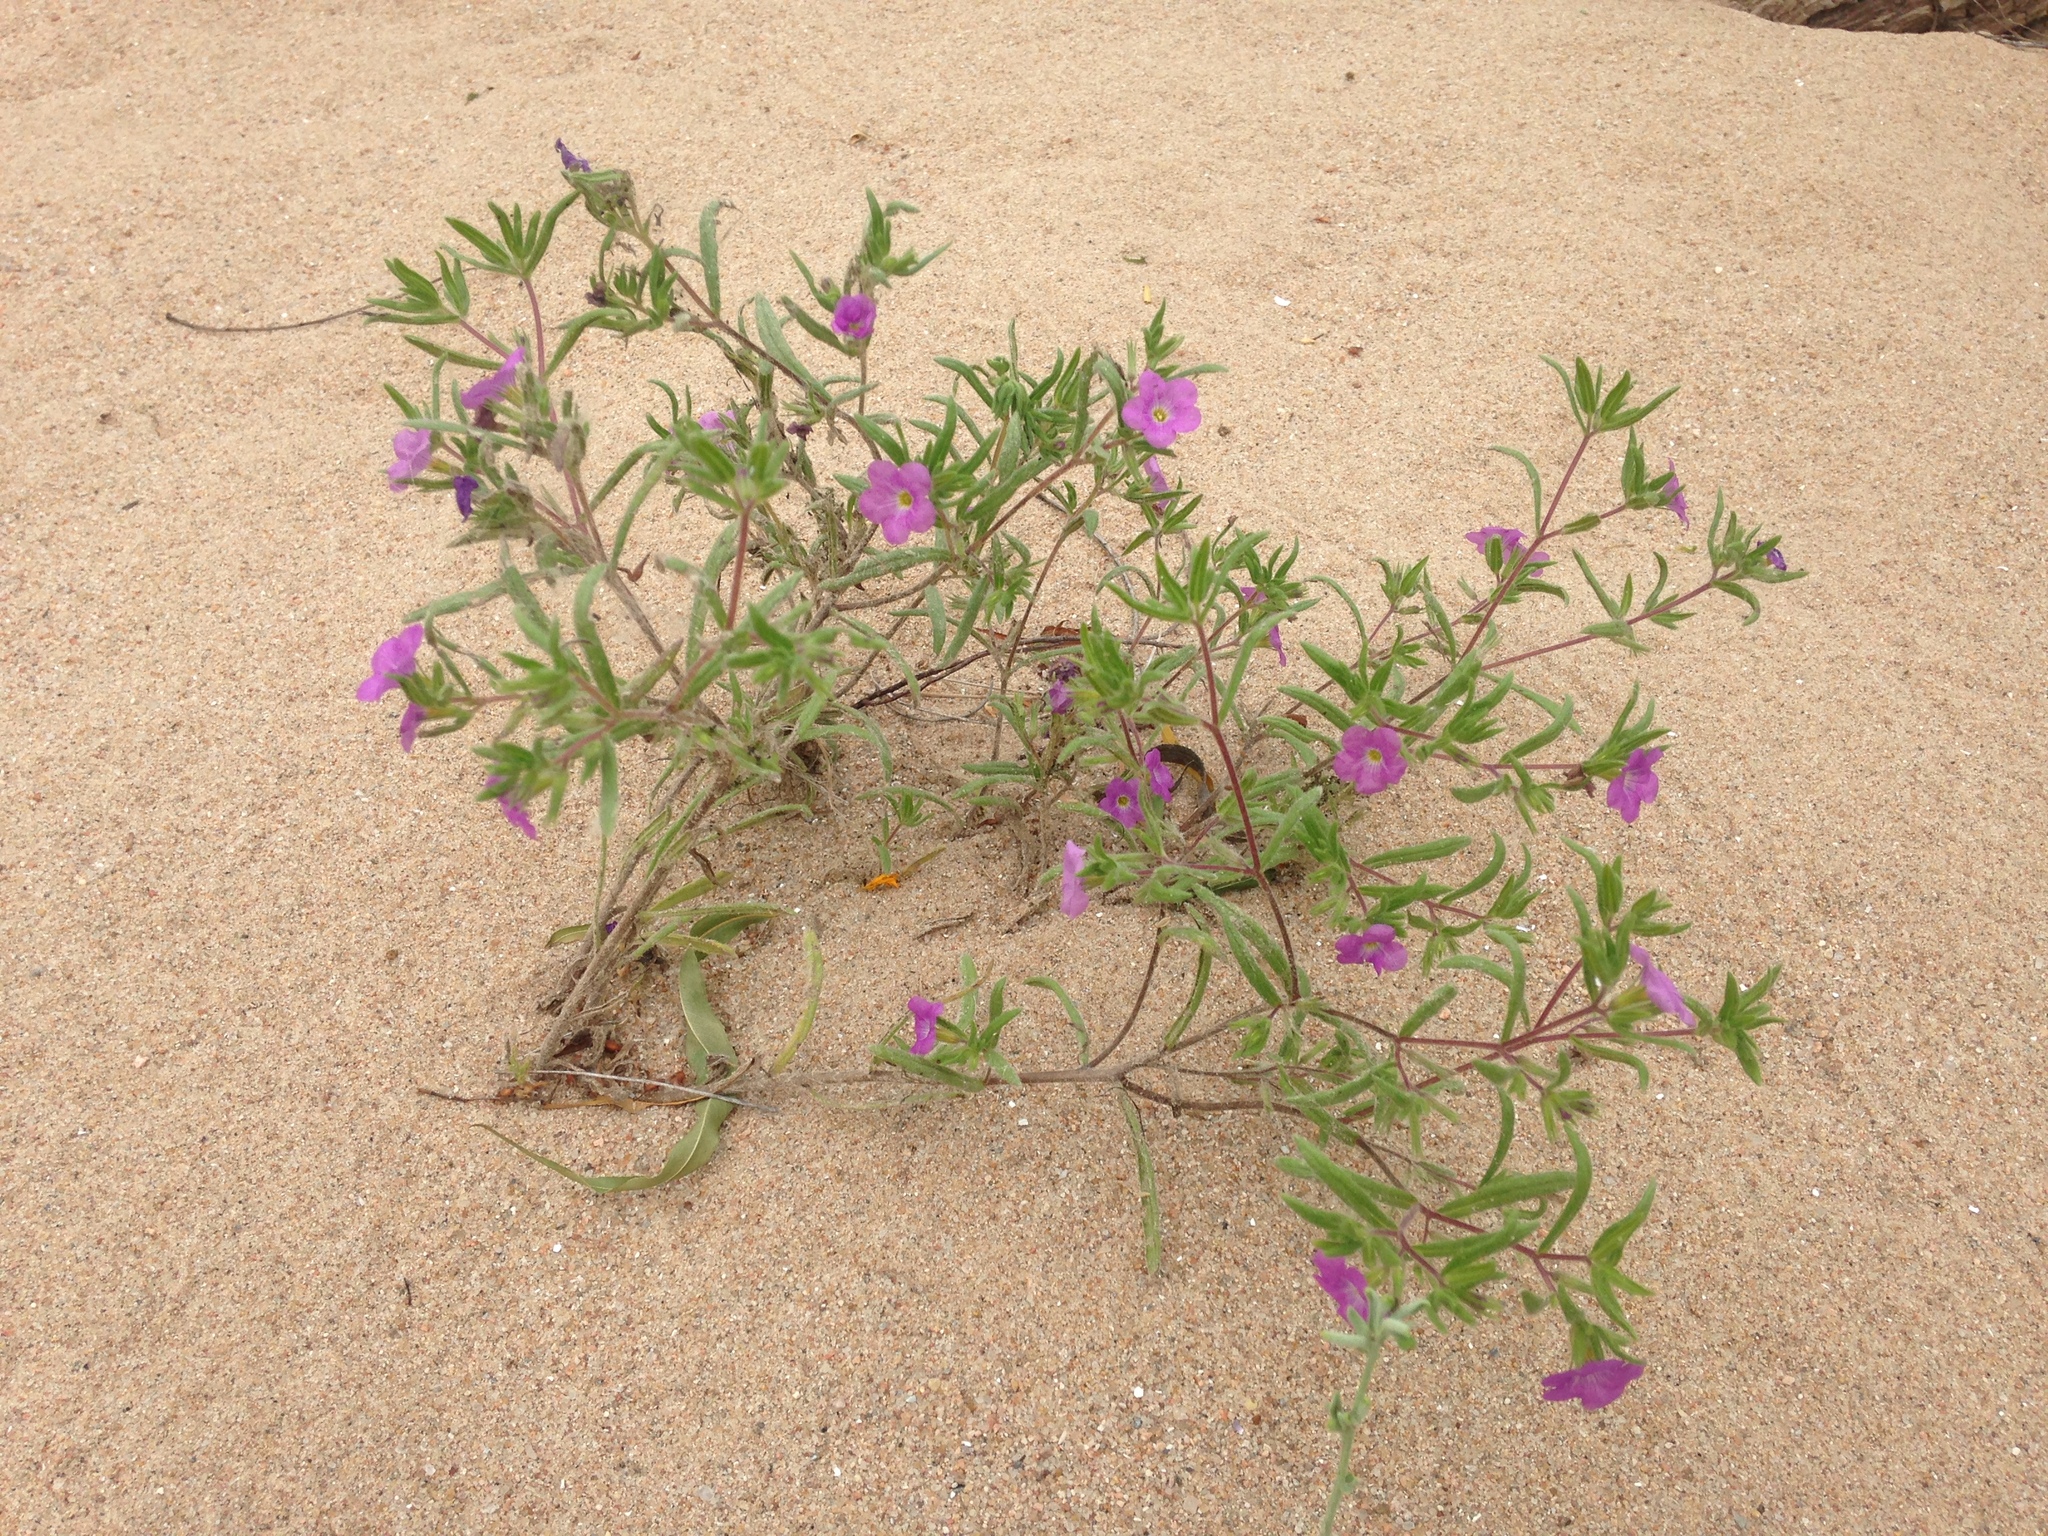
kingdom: Plantae
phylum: Tracheophyta
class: Magnoliopsida
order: Boraginales
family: Namaceae
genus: Nama
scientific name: Nama hispida
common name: Bristly nama
